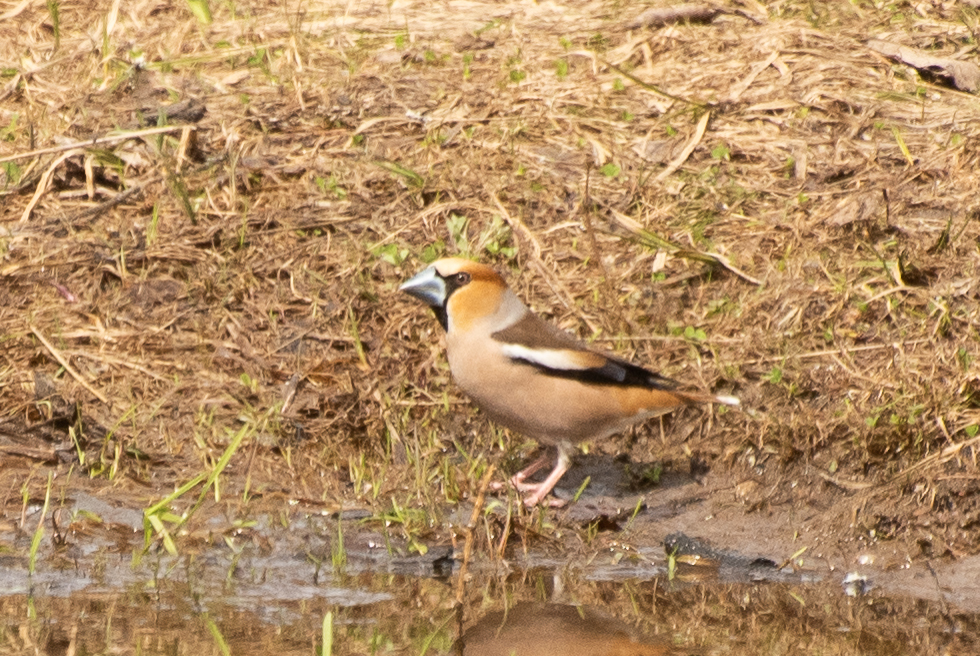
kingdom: Animalia
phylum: Chordata
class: Aves
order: Passeriformes
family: Fringillidae
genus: Coccothraustes
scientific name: Coccothraustes coccothraustes
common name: Hawfinch
